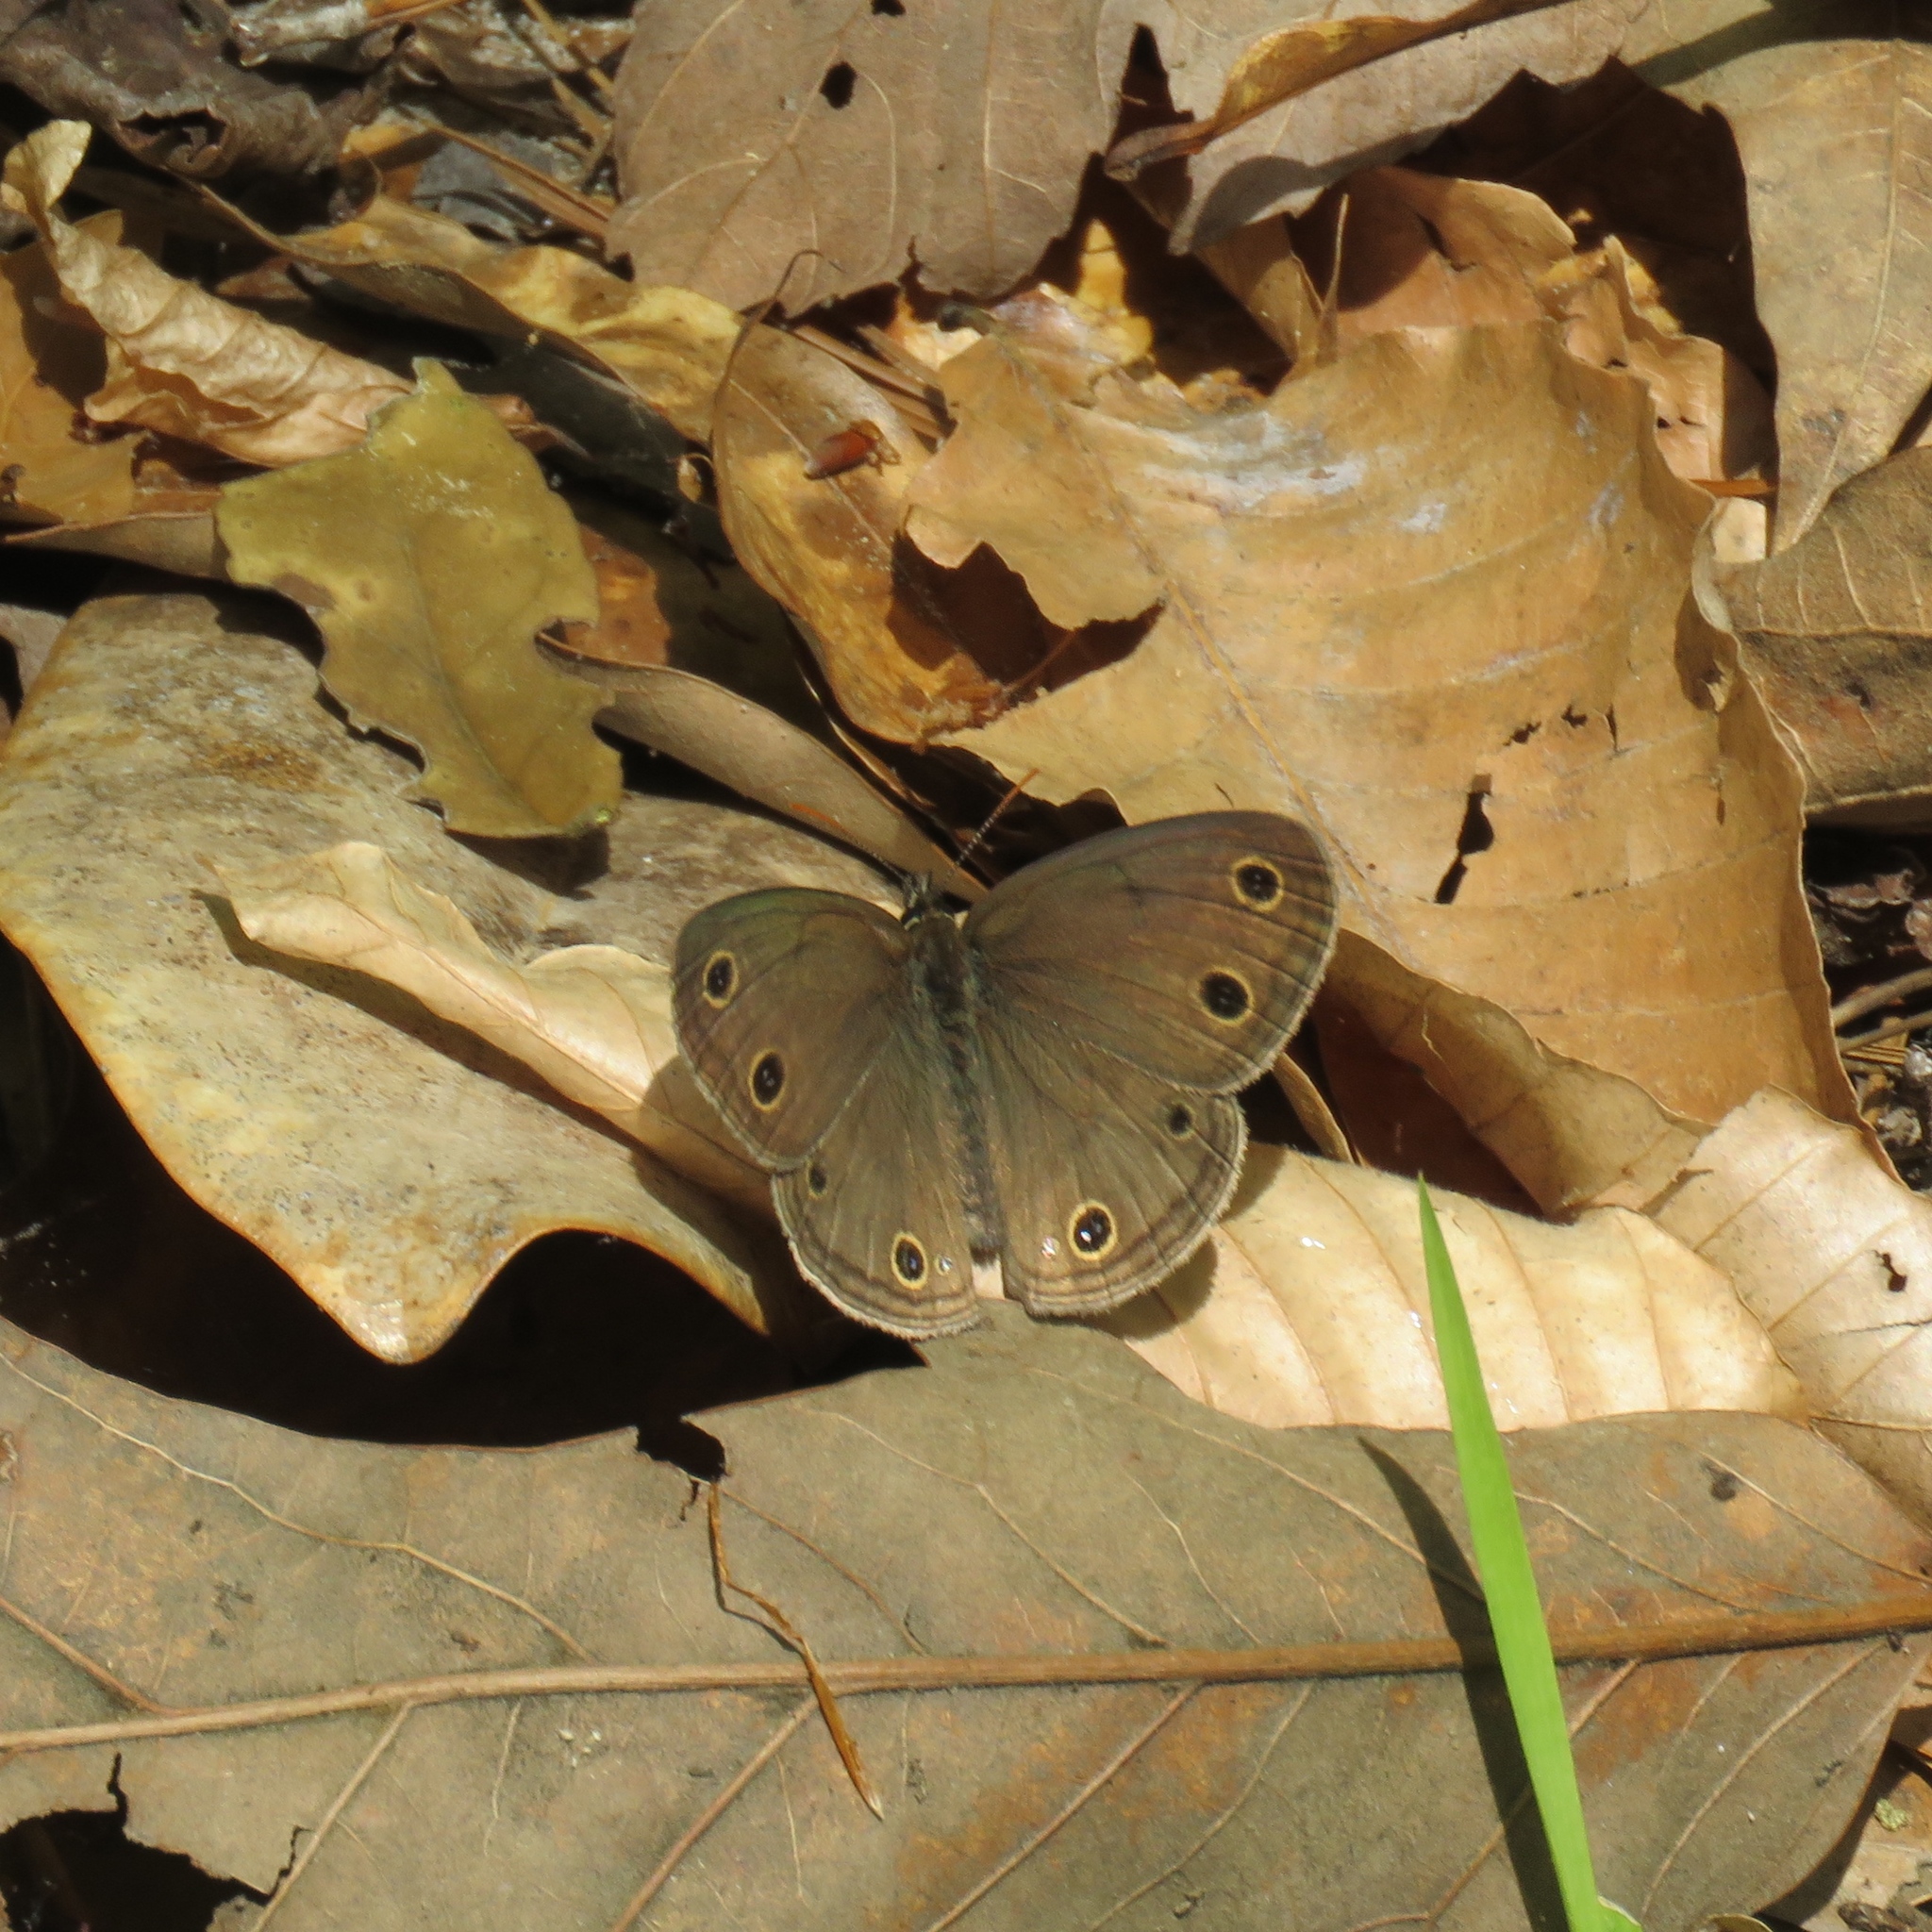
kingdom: Animalia
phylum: Arthropoda
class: Insecta
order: Lepidoptera
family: Nymphalidae
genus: Euptychia
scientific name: Euptychia cymela
